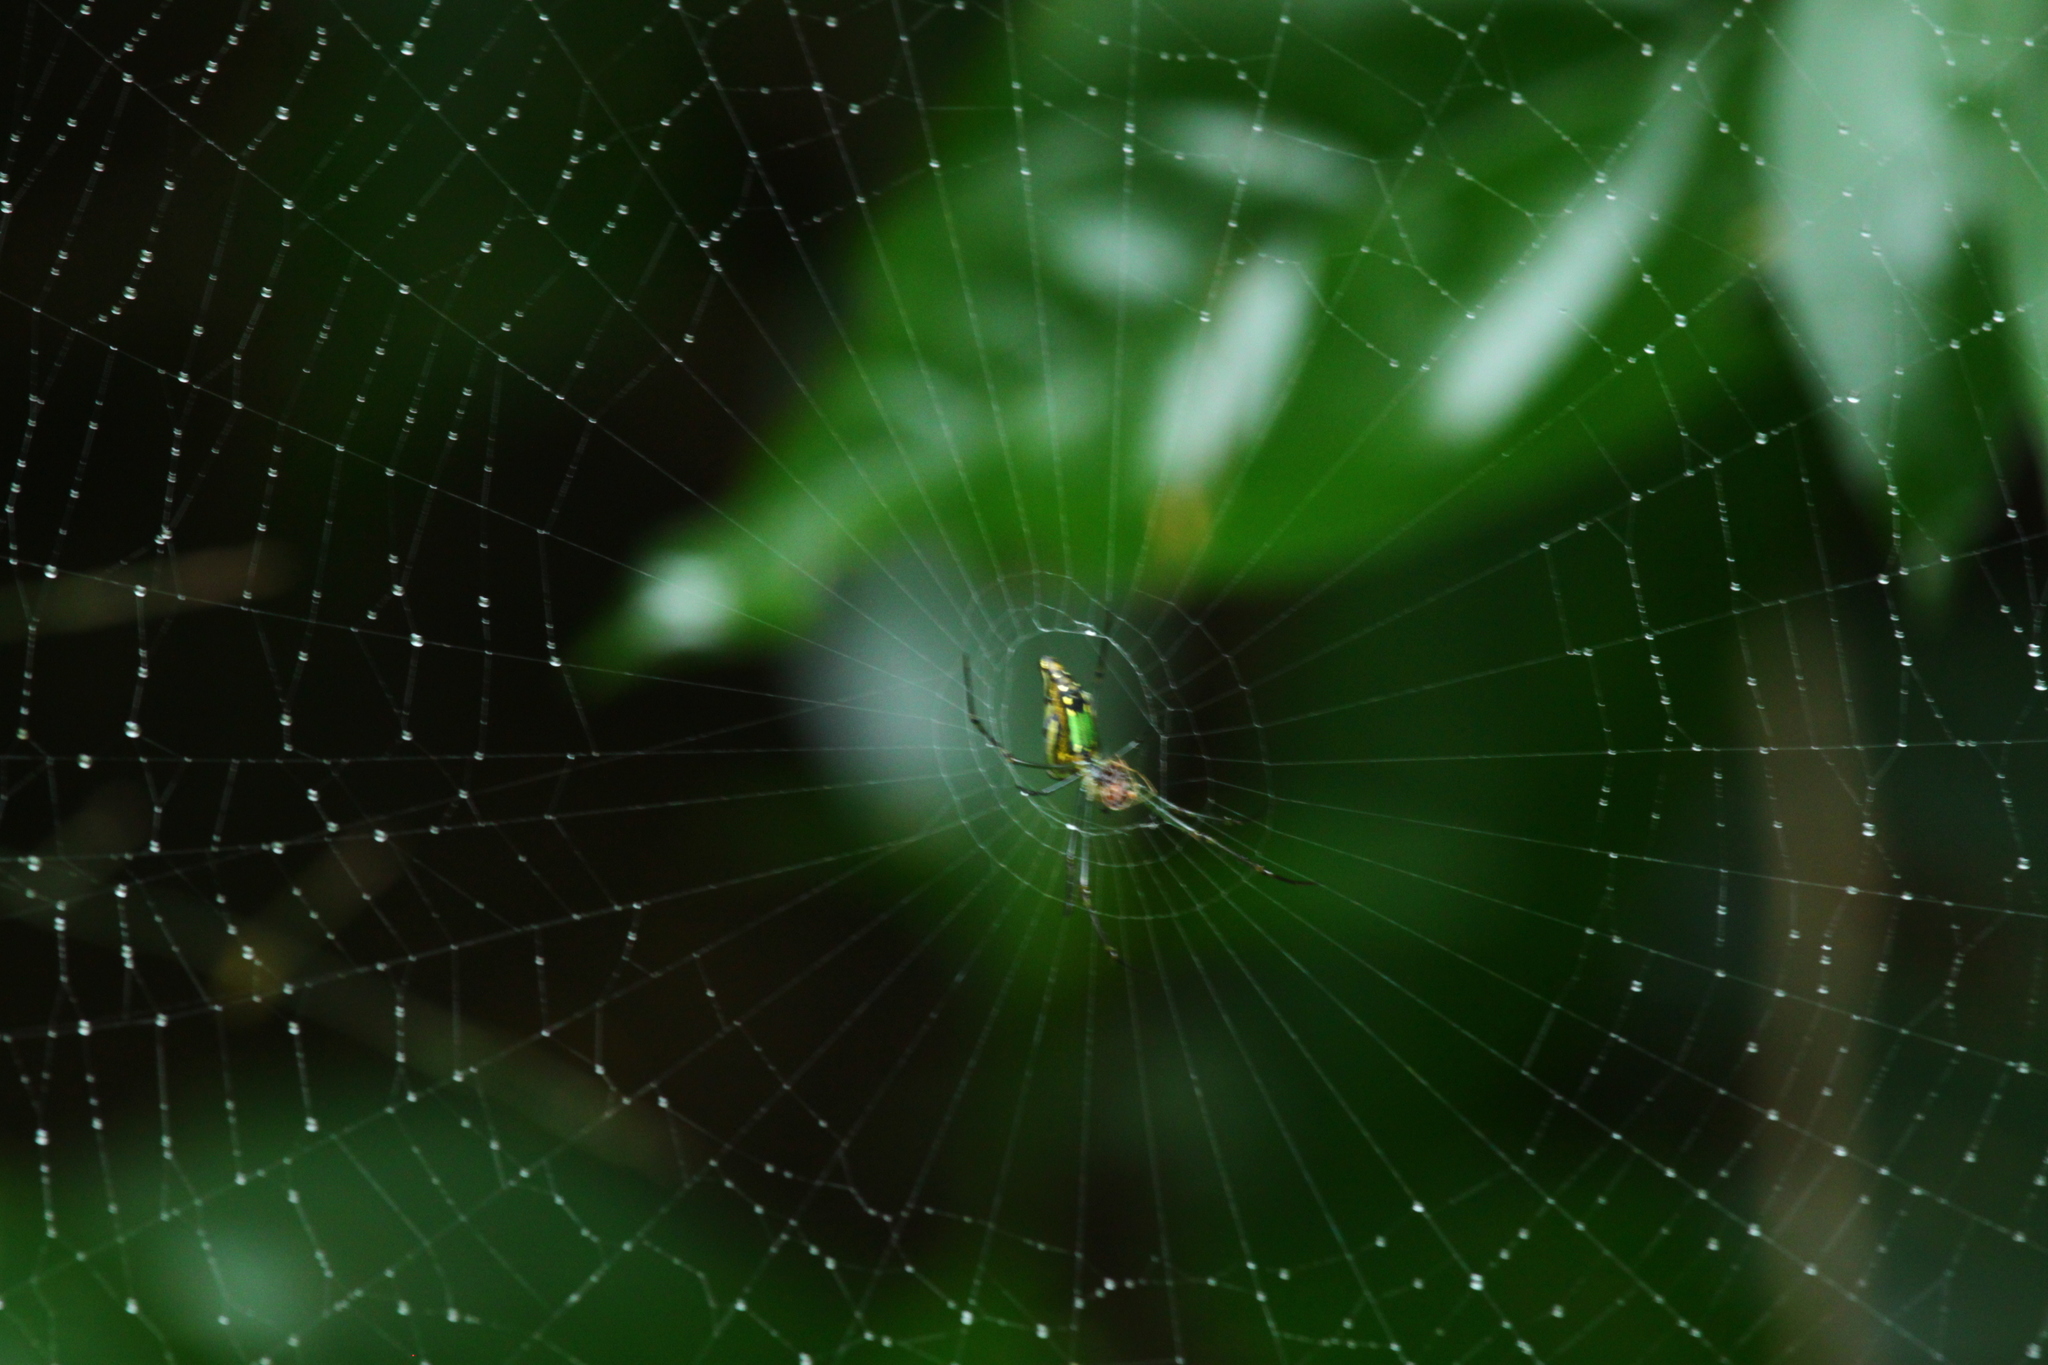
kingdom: Animalia
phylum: Arthropoda
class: Arachnida
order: Araneae
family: Tetragnathidae
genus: Leucauge
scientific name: Leucauge decorata
